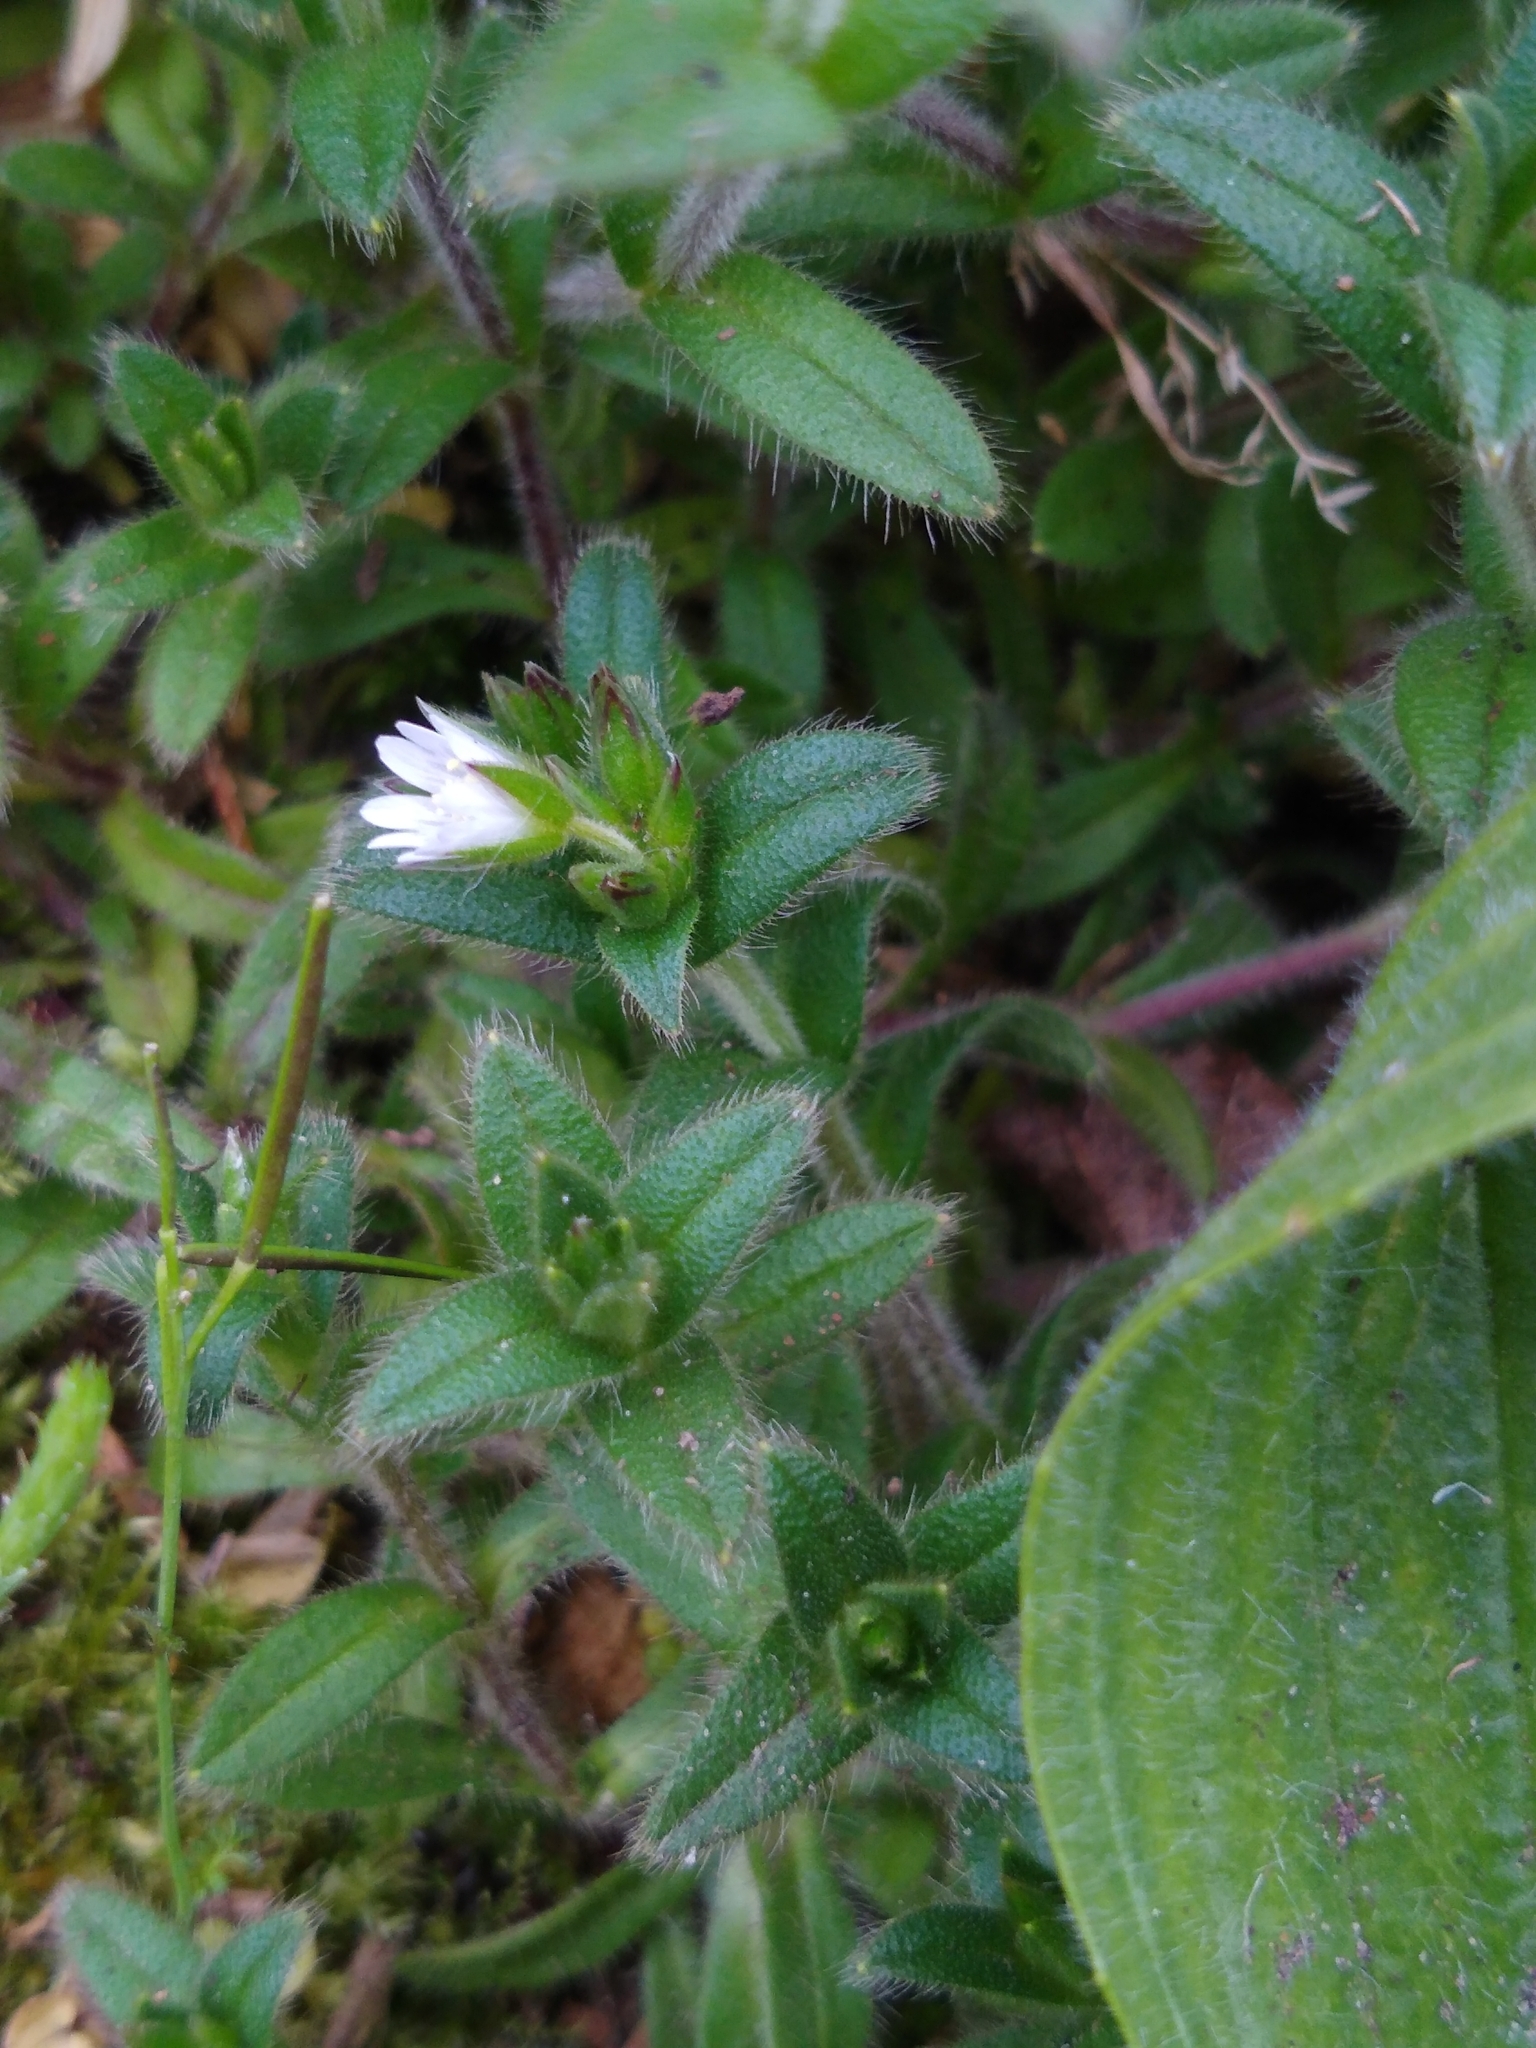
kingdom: Plantae
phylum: Tracheophyta
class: Magnoliopsida
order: Caryophyllales
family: Caryophyllaceae
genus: Cerastium
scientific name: Cerastium fontanum
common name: Common mouse-ear
